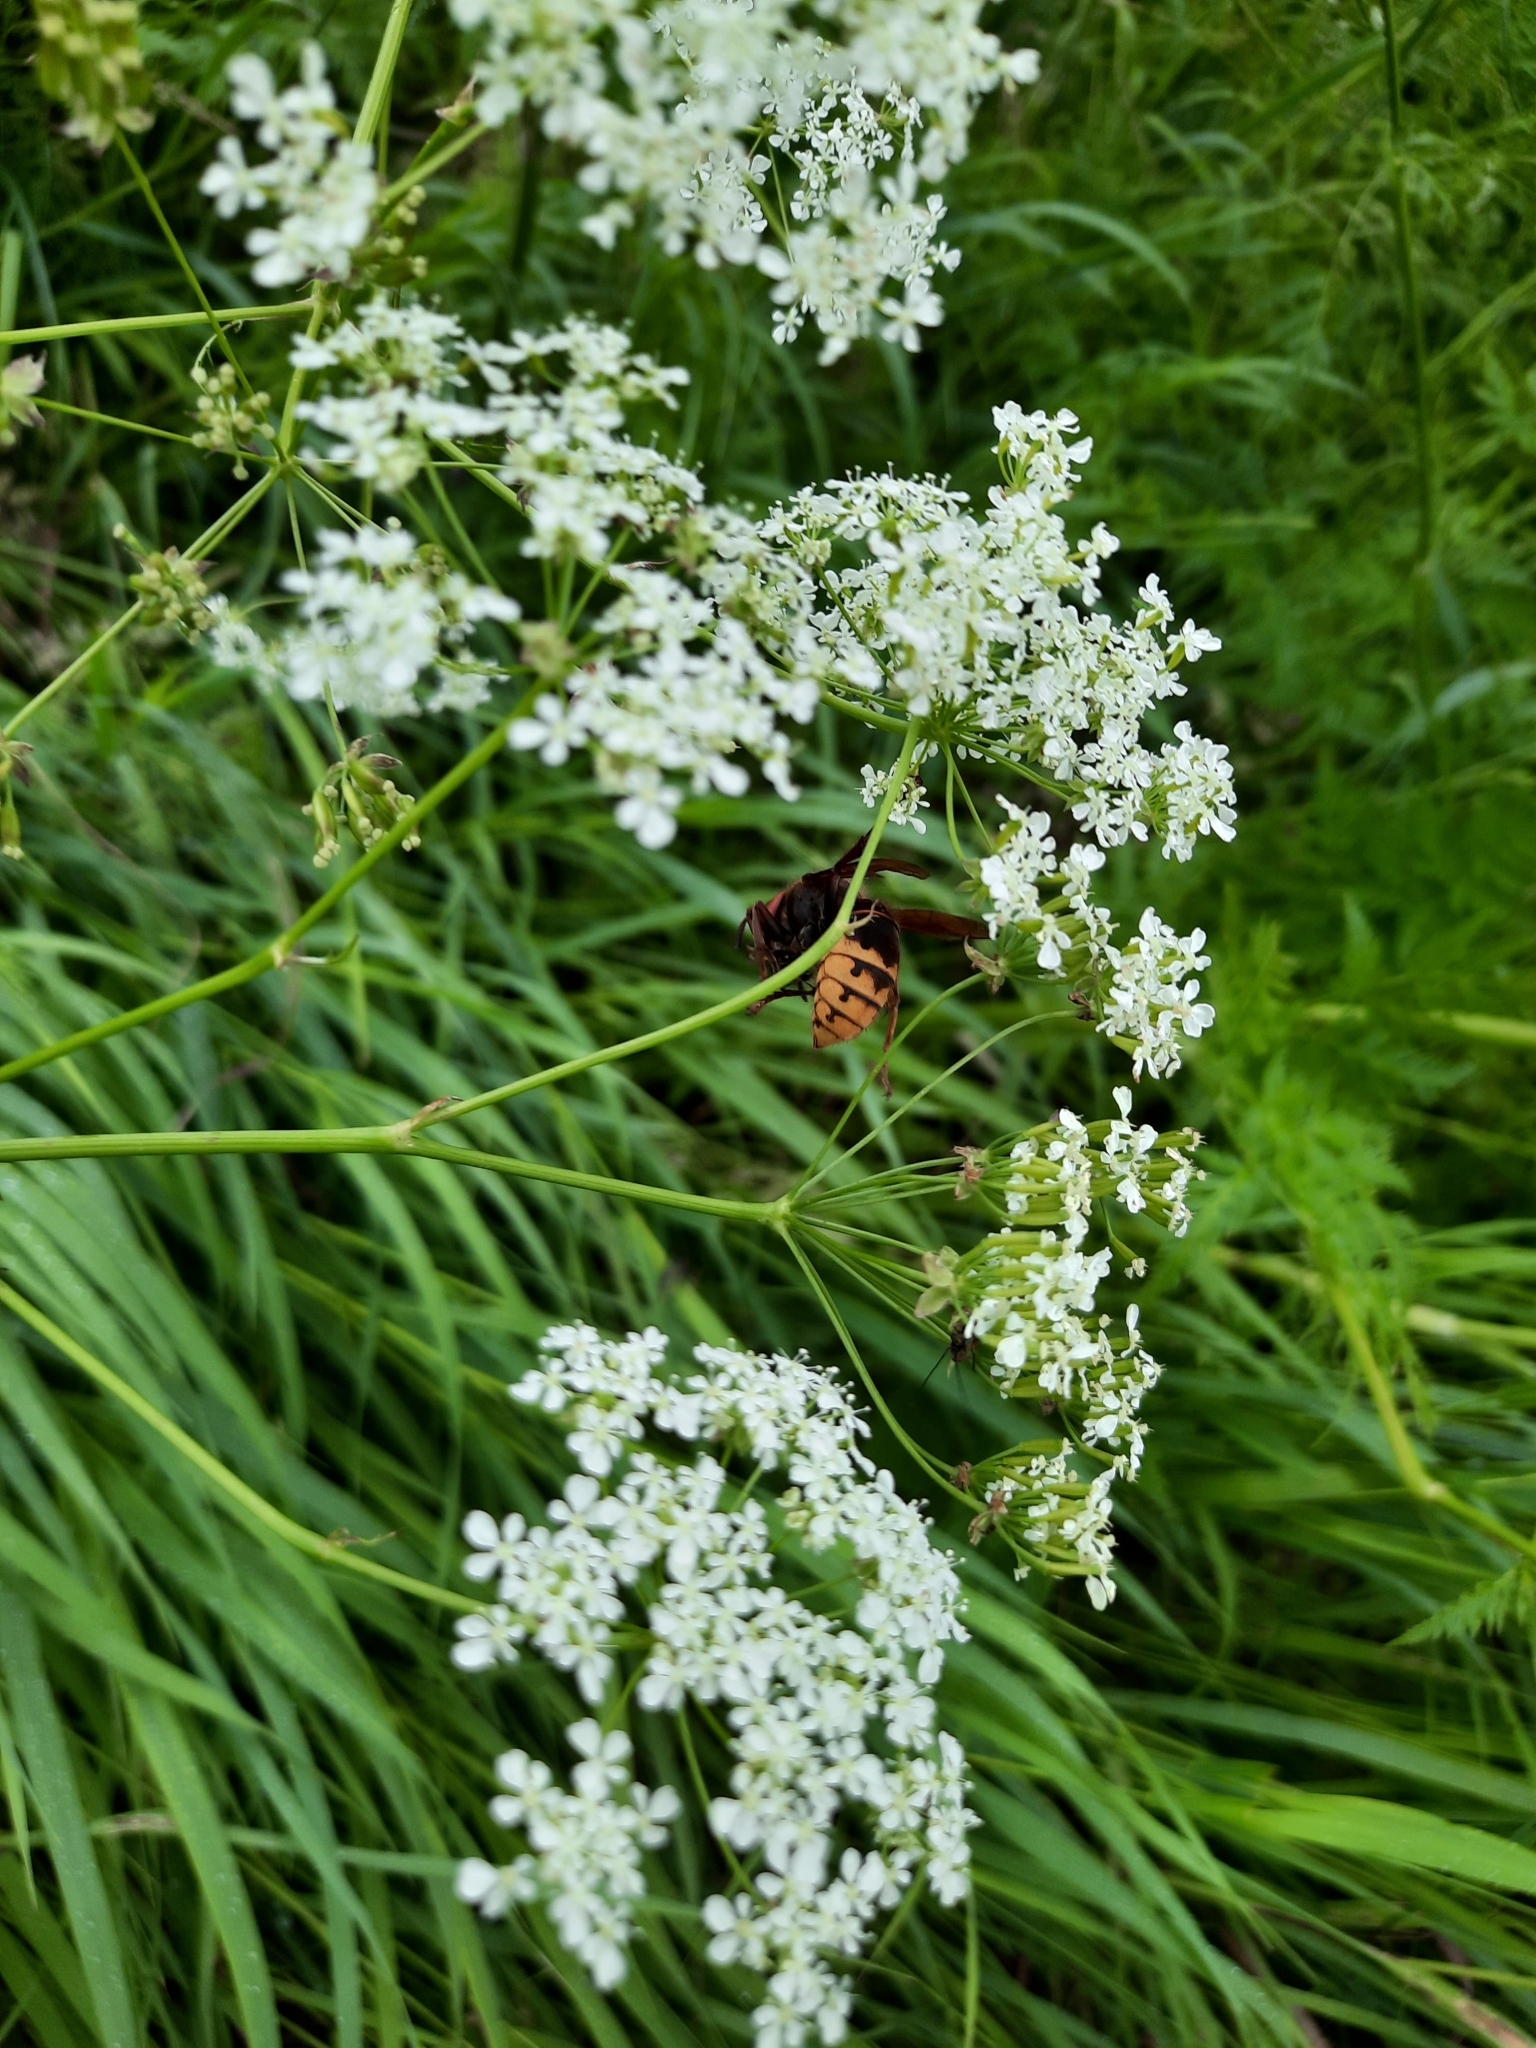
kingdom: Animalia
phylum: Arthropoda
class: Insecta
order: Hymenoptera
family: Vespidae
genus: Vespa
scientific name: Vespa crabro
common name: Hornet
